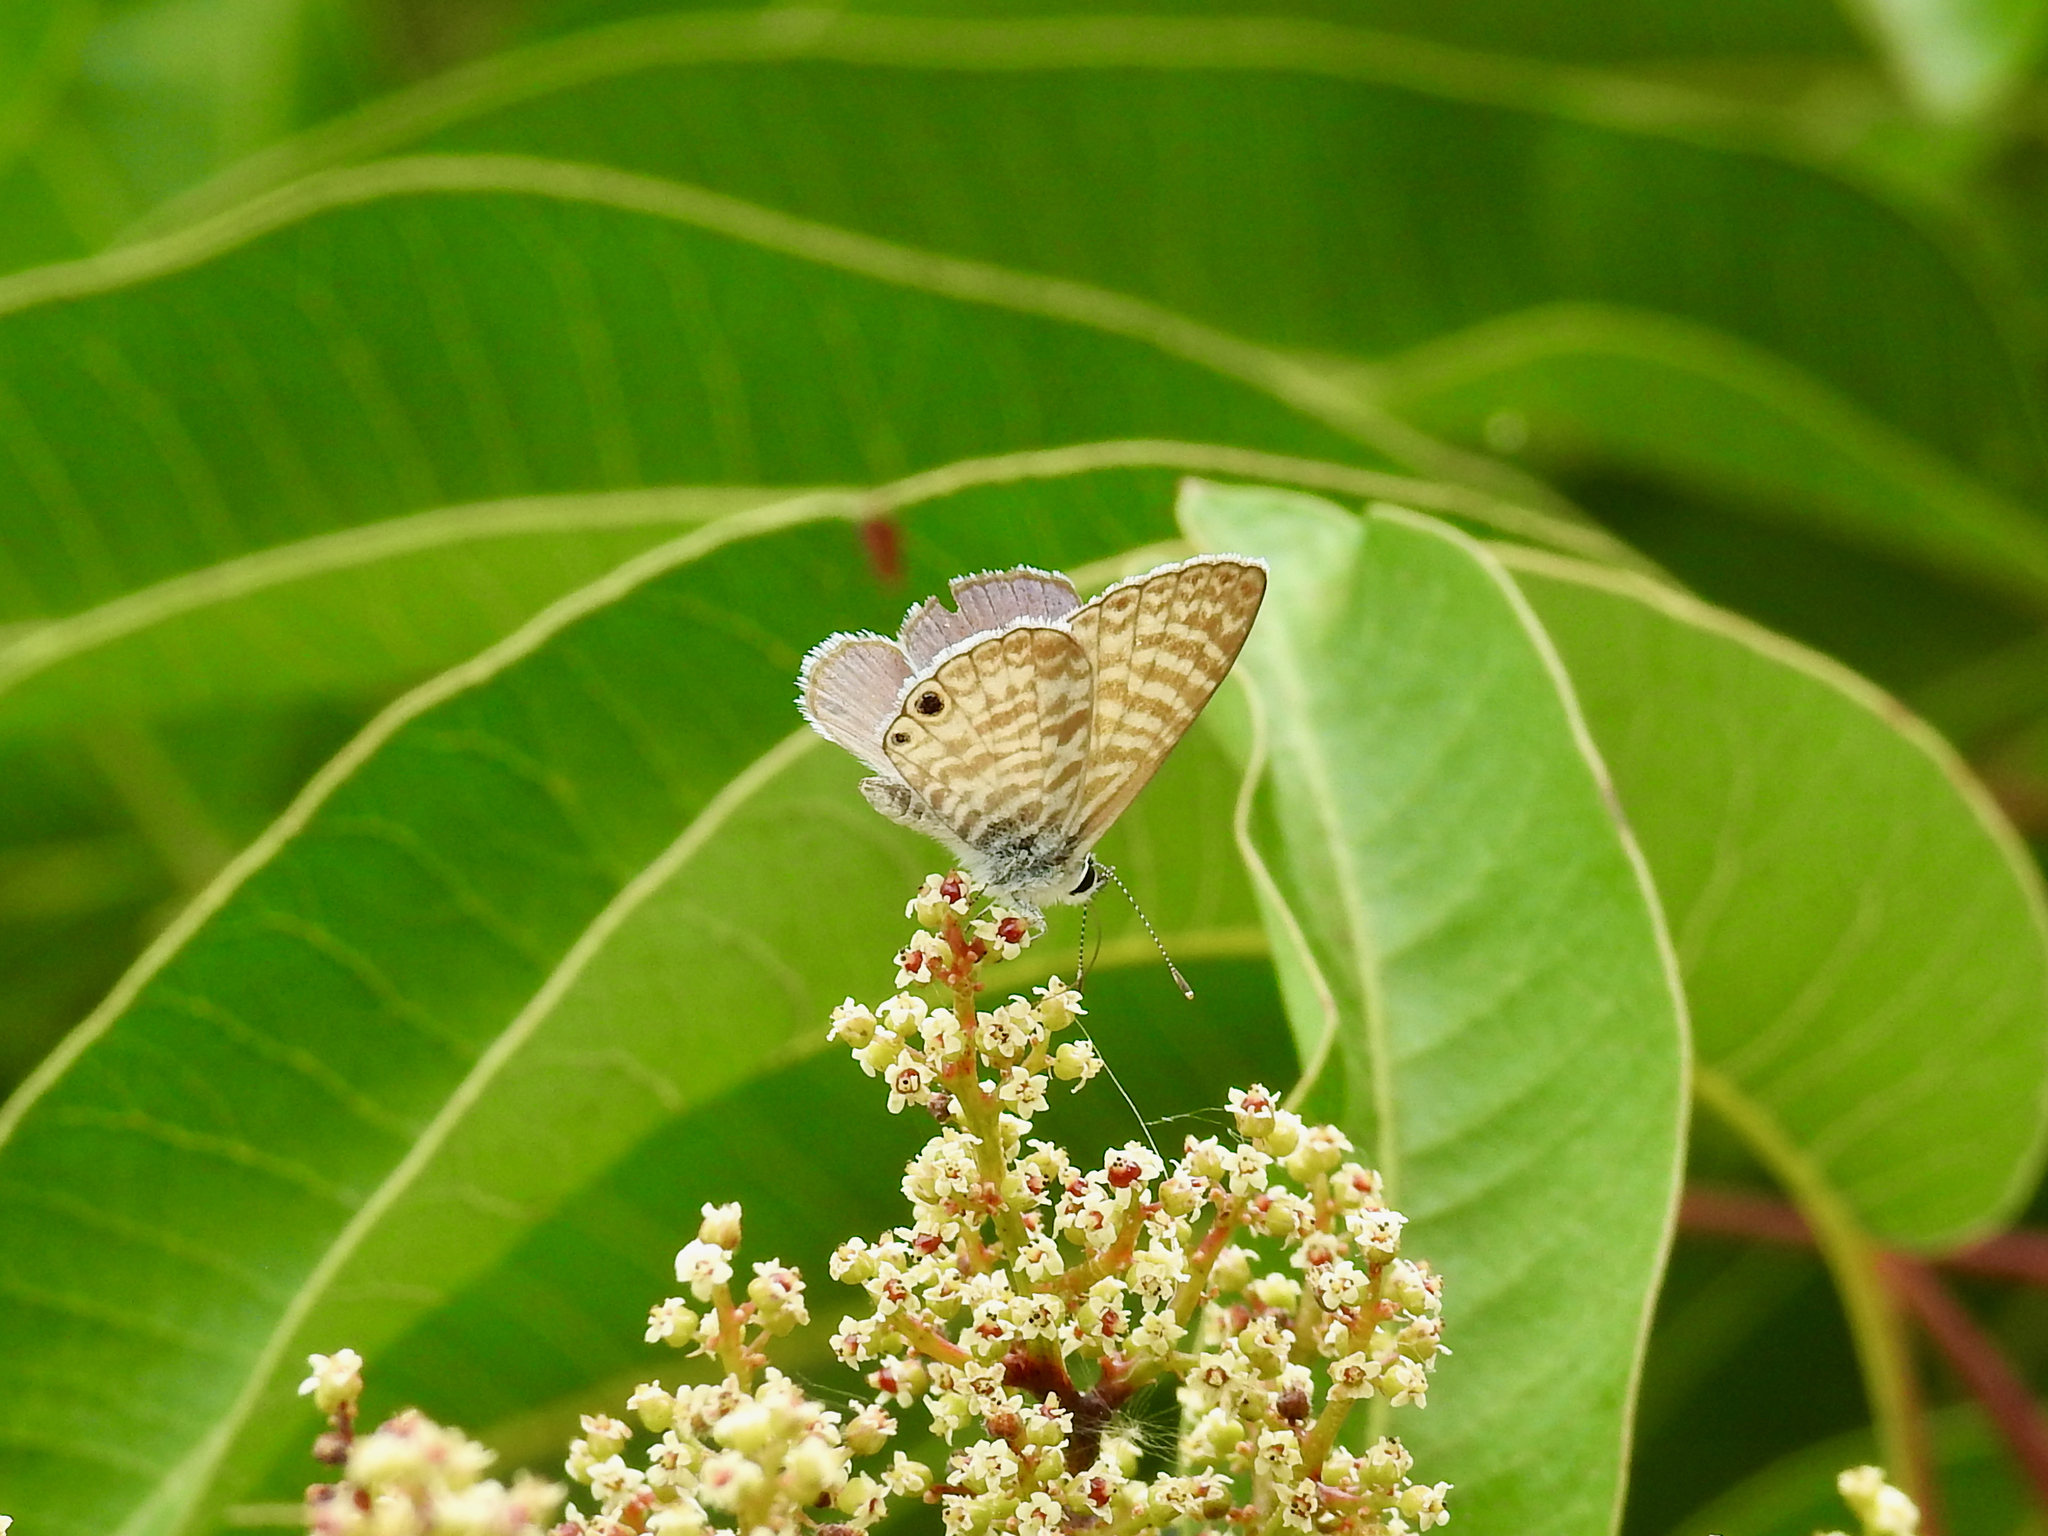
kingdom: Animalia
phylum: Arthropoda
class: Insecta
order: Lepidoptera
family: Lycaenidae
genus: Leptotes
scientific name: Leptotes marina
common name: Marine blue
